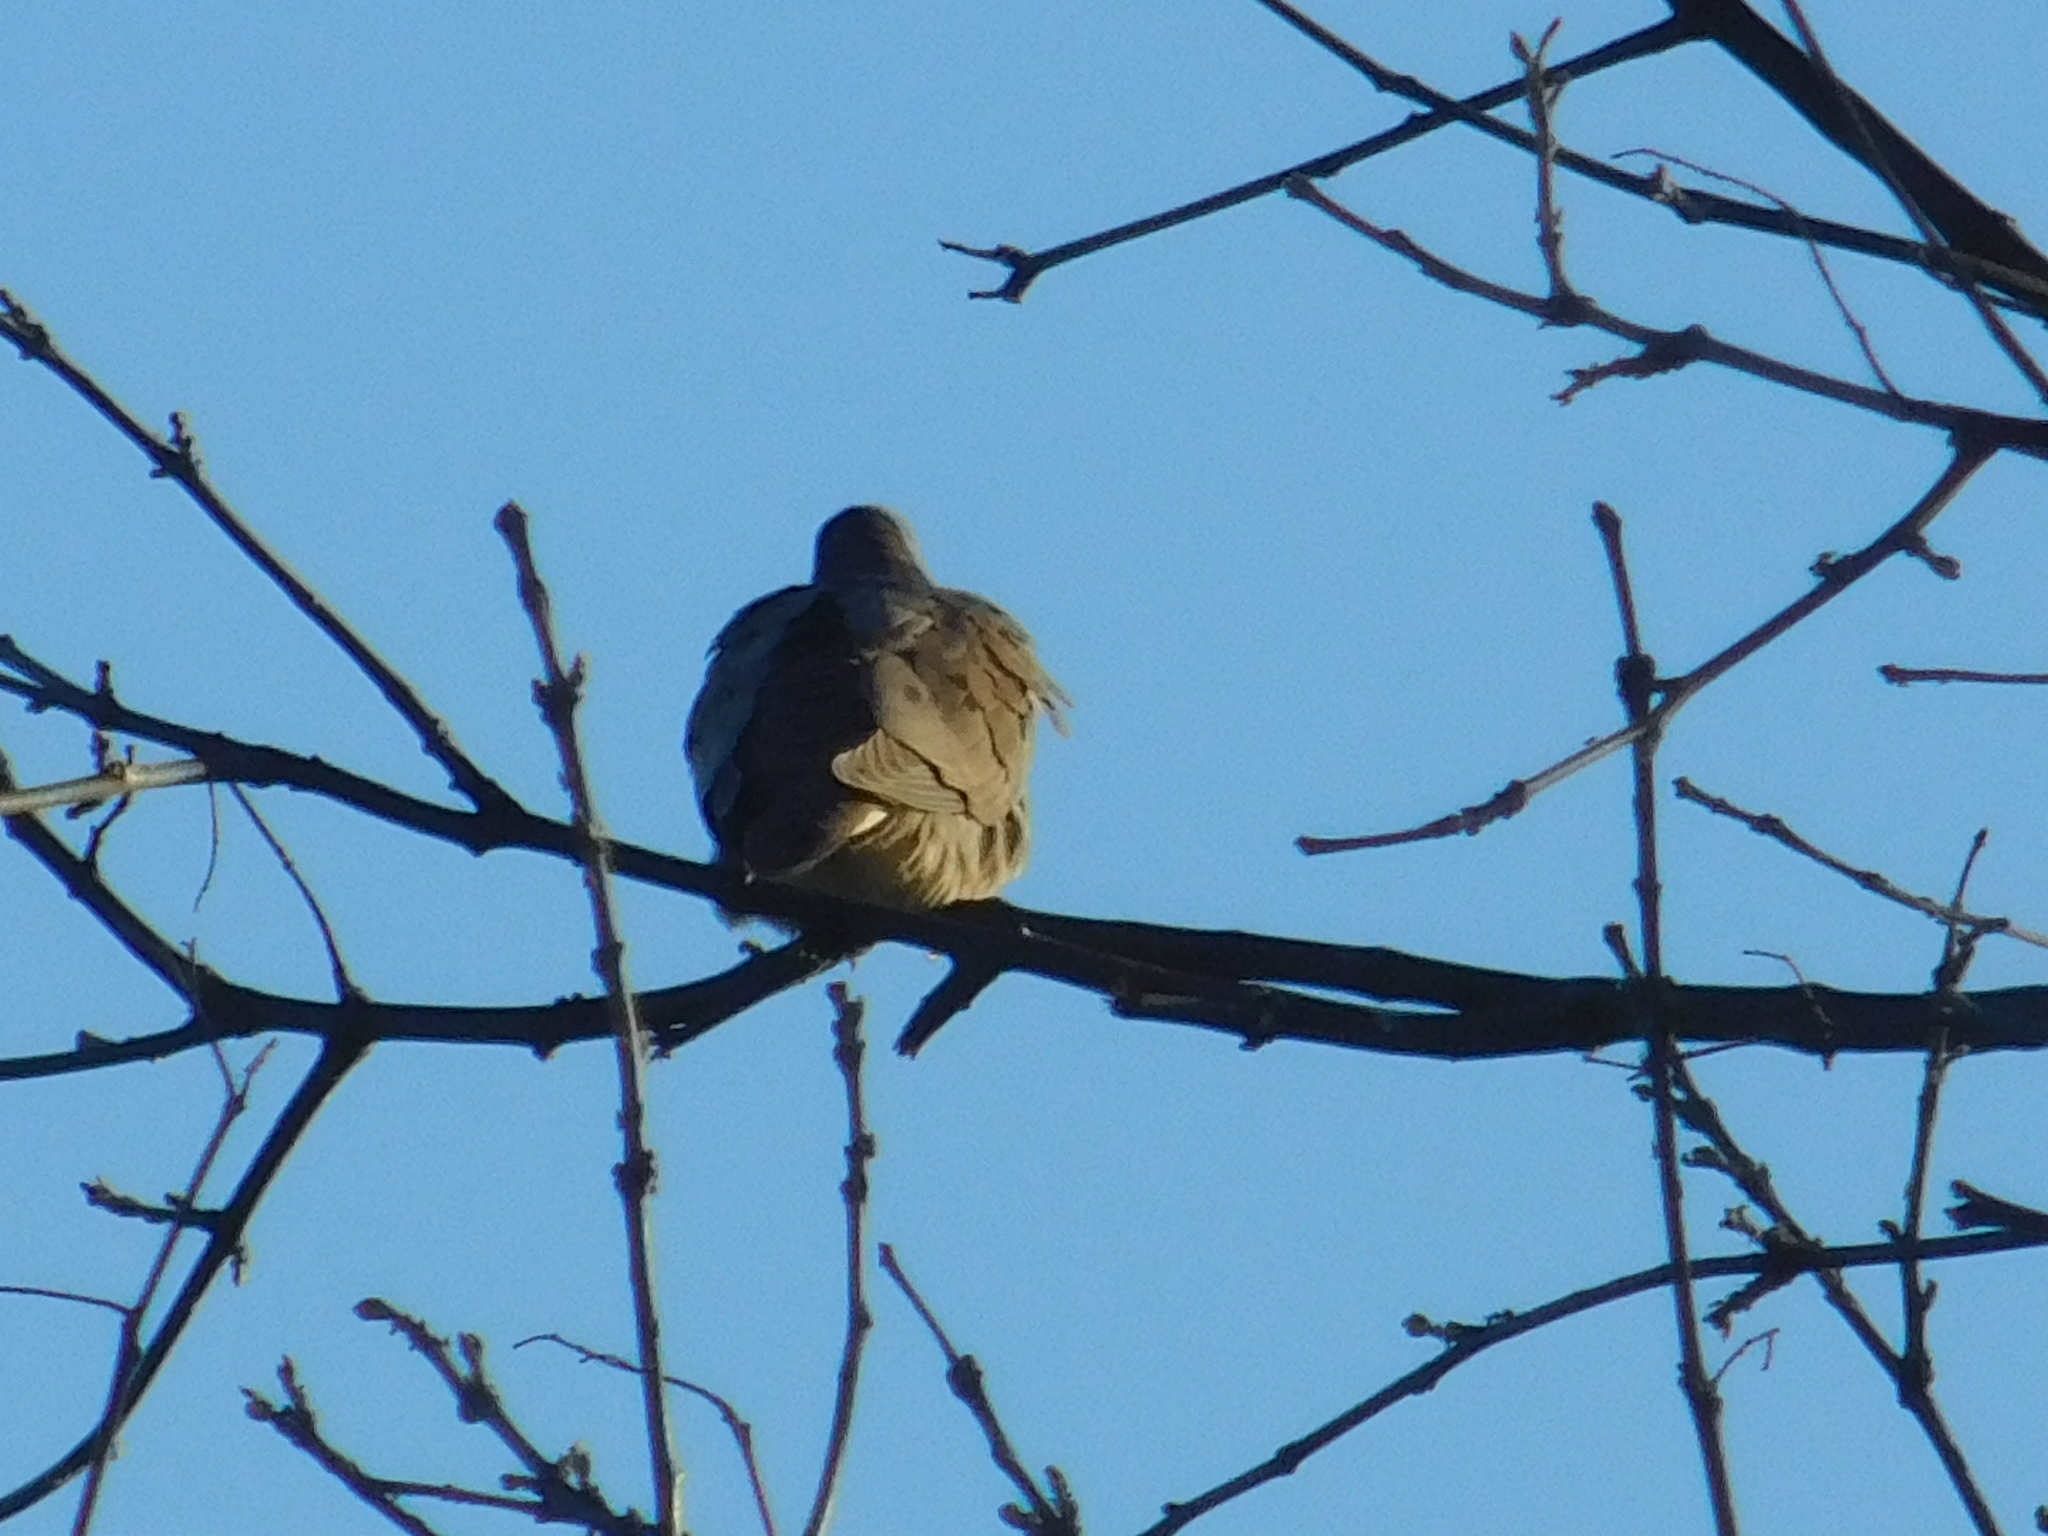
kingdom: Animalia
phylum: Chordata
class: Aves
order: Columbiformes
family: Columbidae
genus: Zenaida
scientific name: Zenaida auriculata
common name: Eared dove
